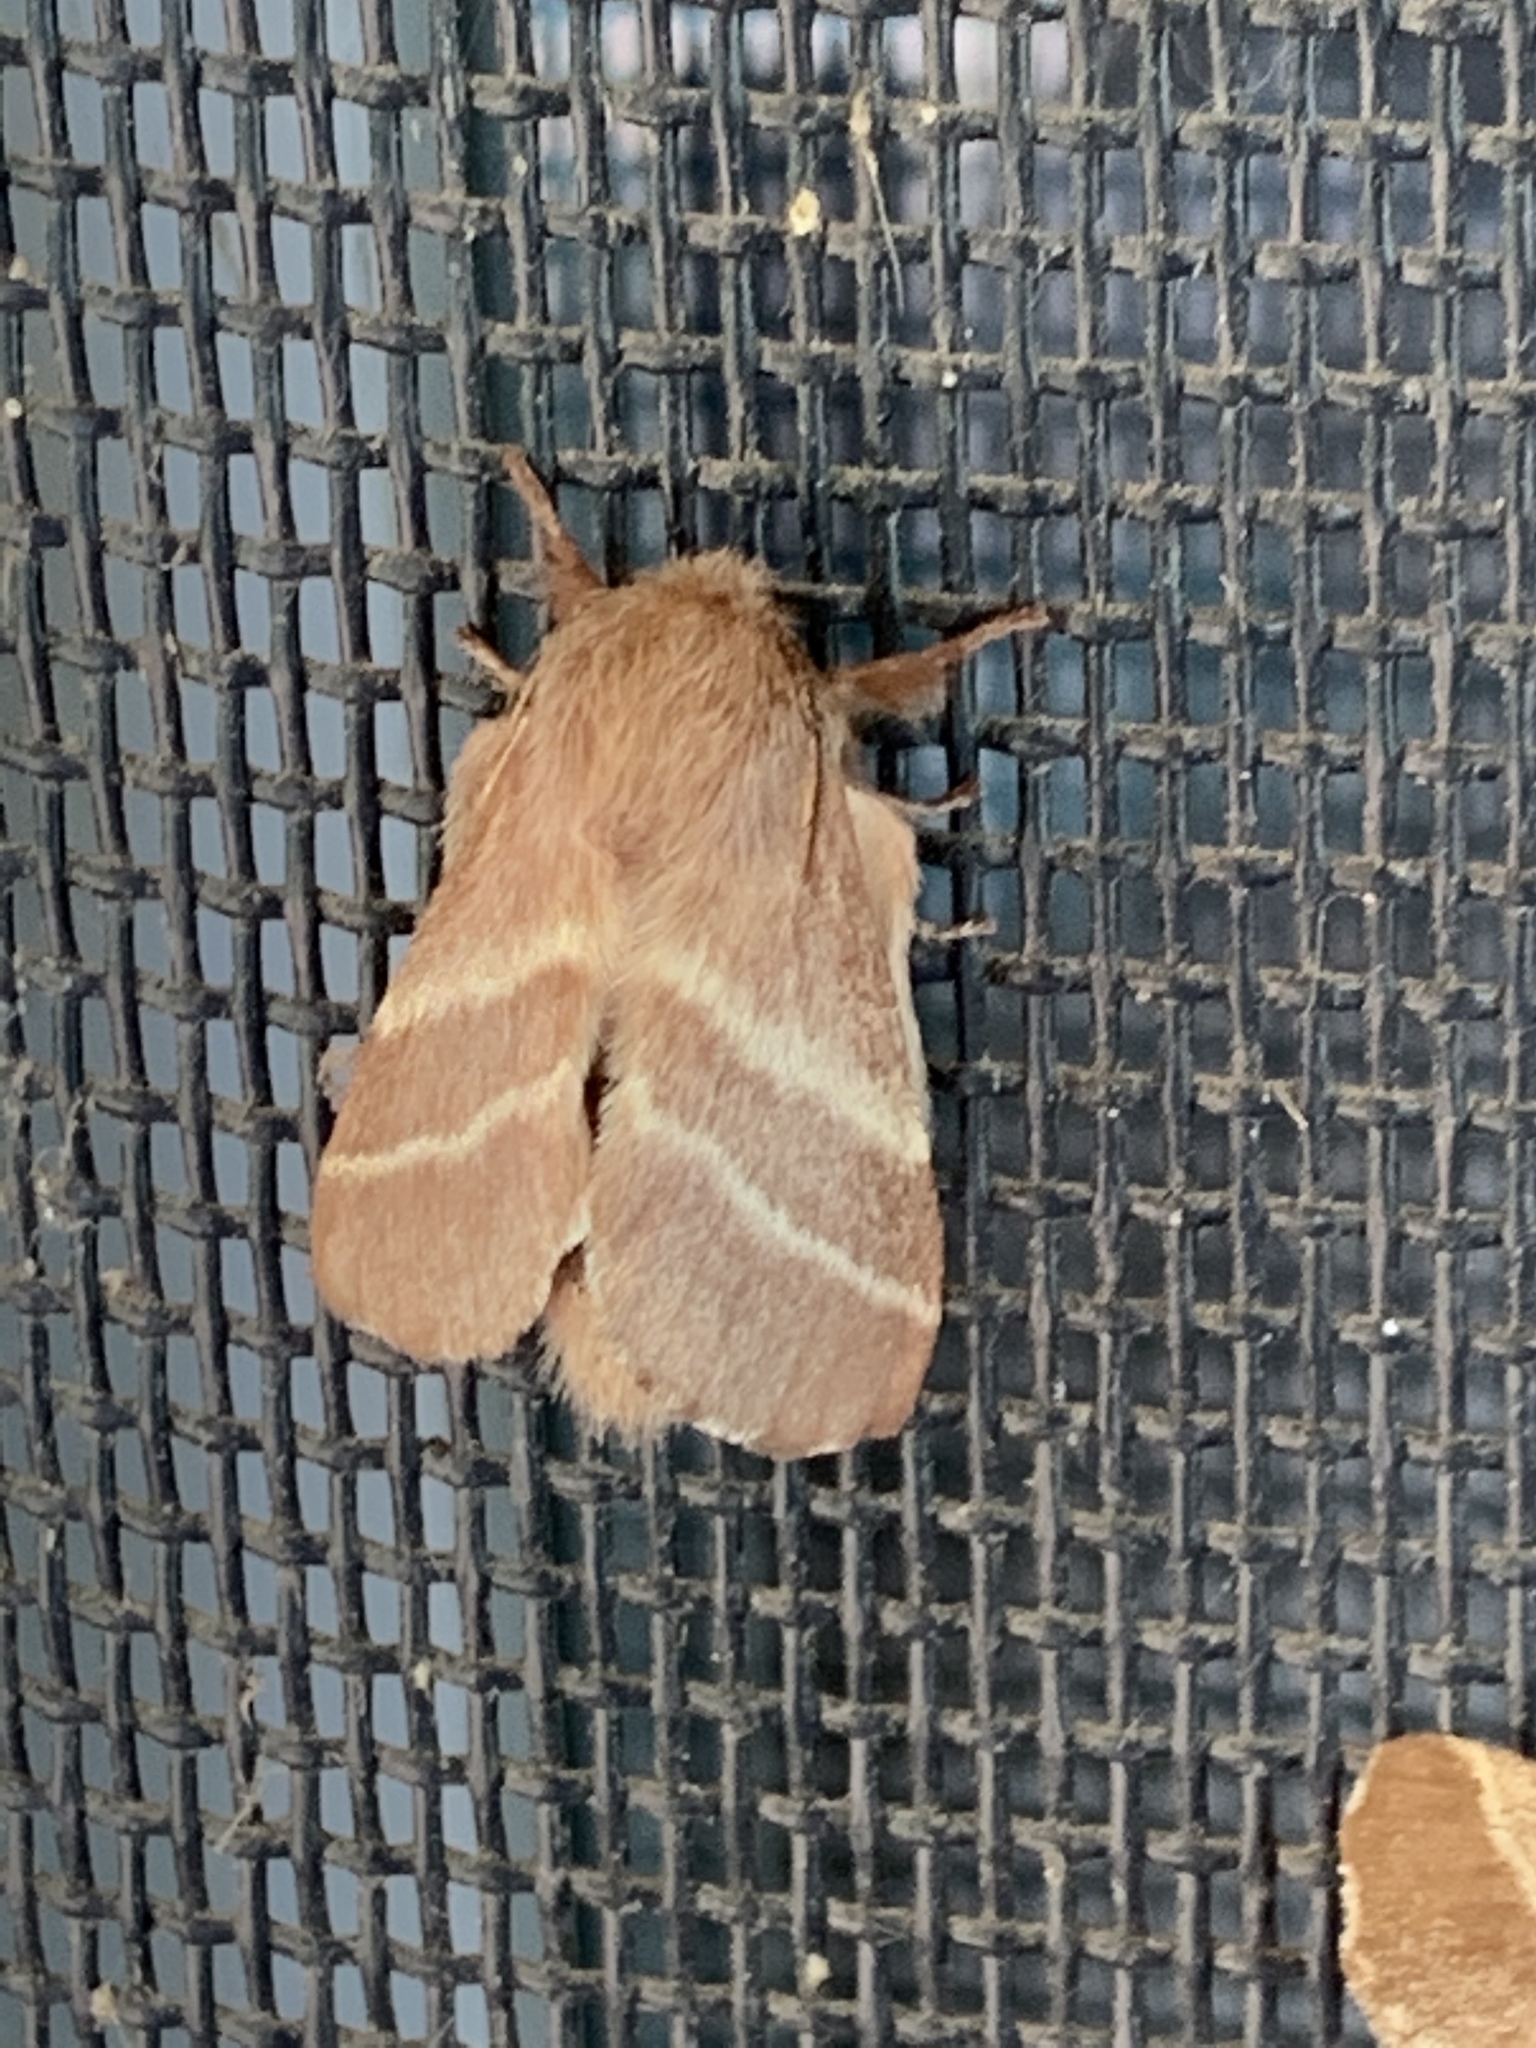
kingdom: Animalia
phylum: Arthropoda
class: Insecta
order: Lepidoptera
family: Lasiocampidae
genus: Malacosoma
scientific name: Malacosoma americana
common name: Eastern tent caterpillar moth
